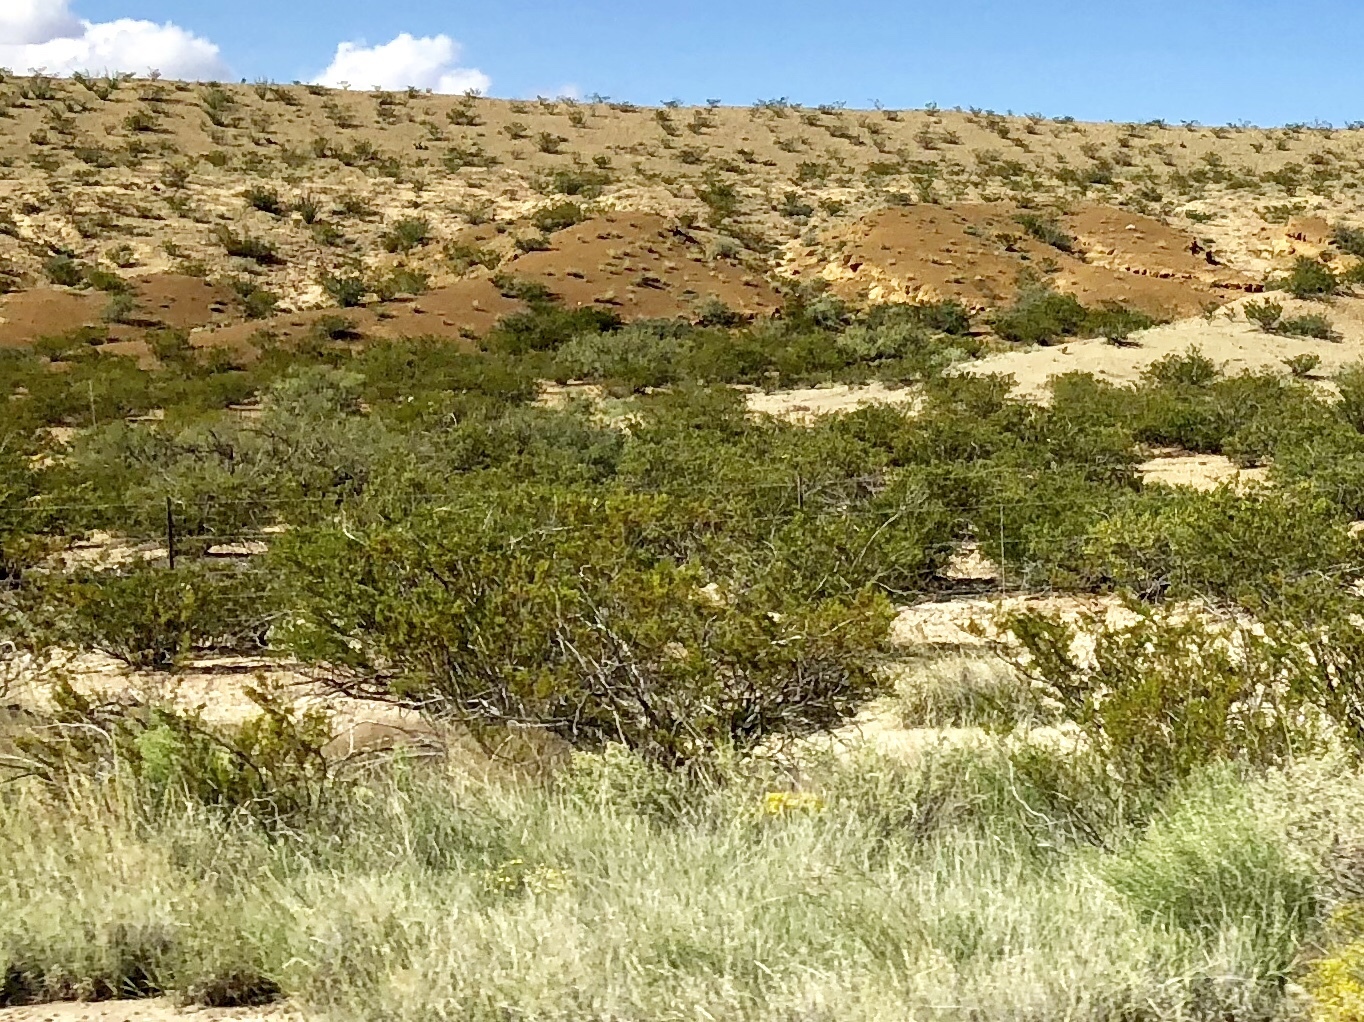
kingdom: Plantae
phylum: Tracheophyta
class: Magnoliopsida
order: Zygophyllales
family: Zygophyllaceae
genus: Larrea
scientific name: Larrea tridentata
